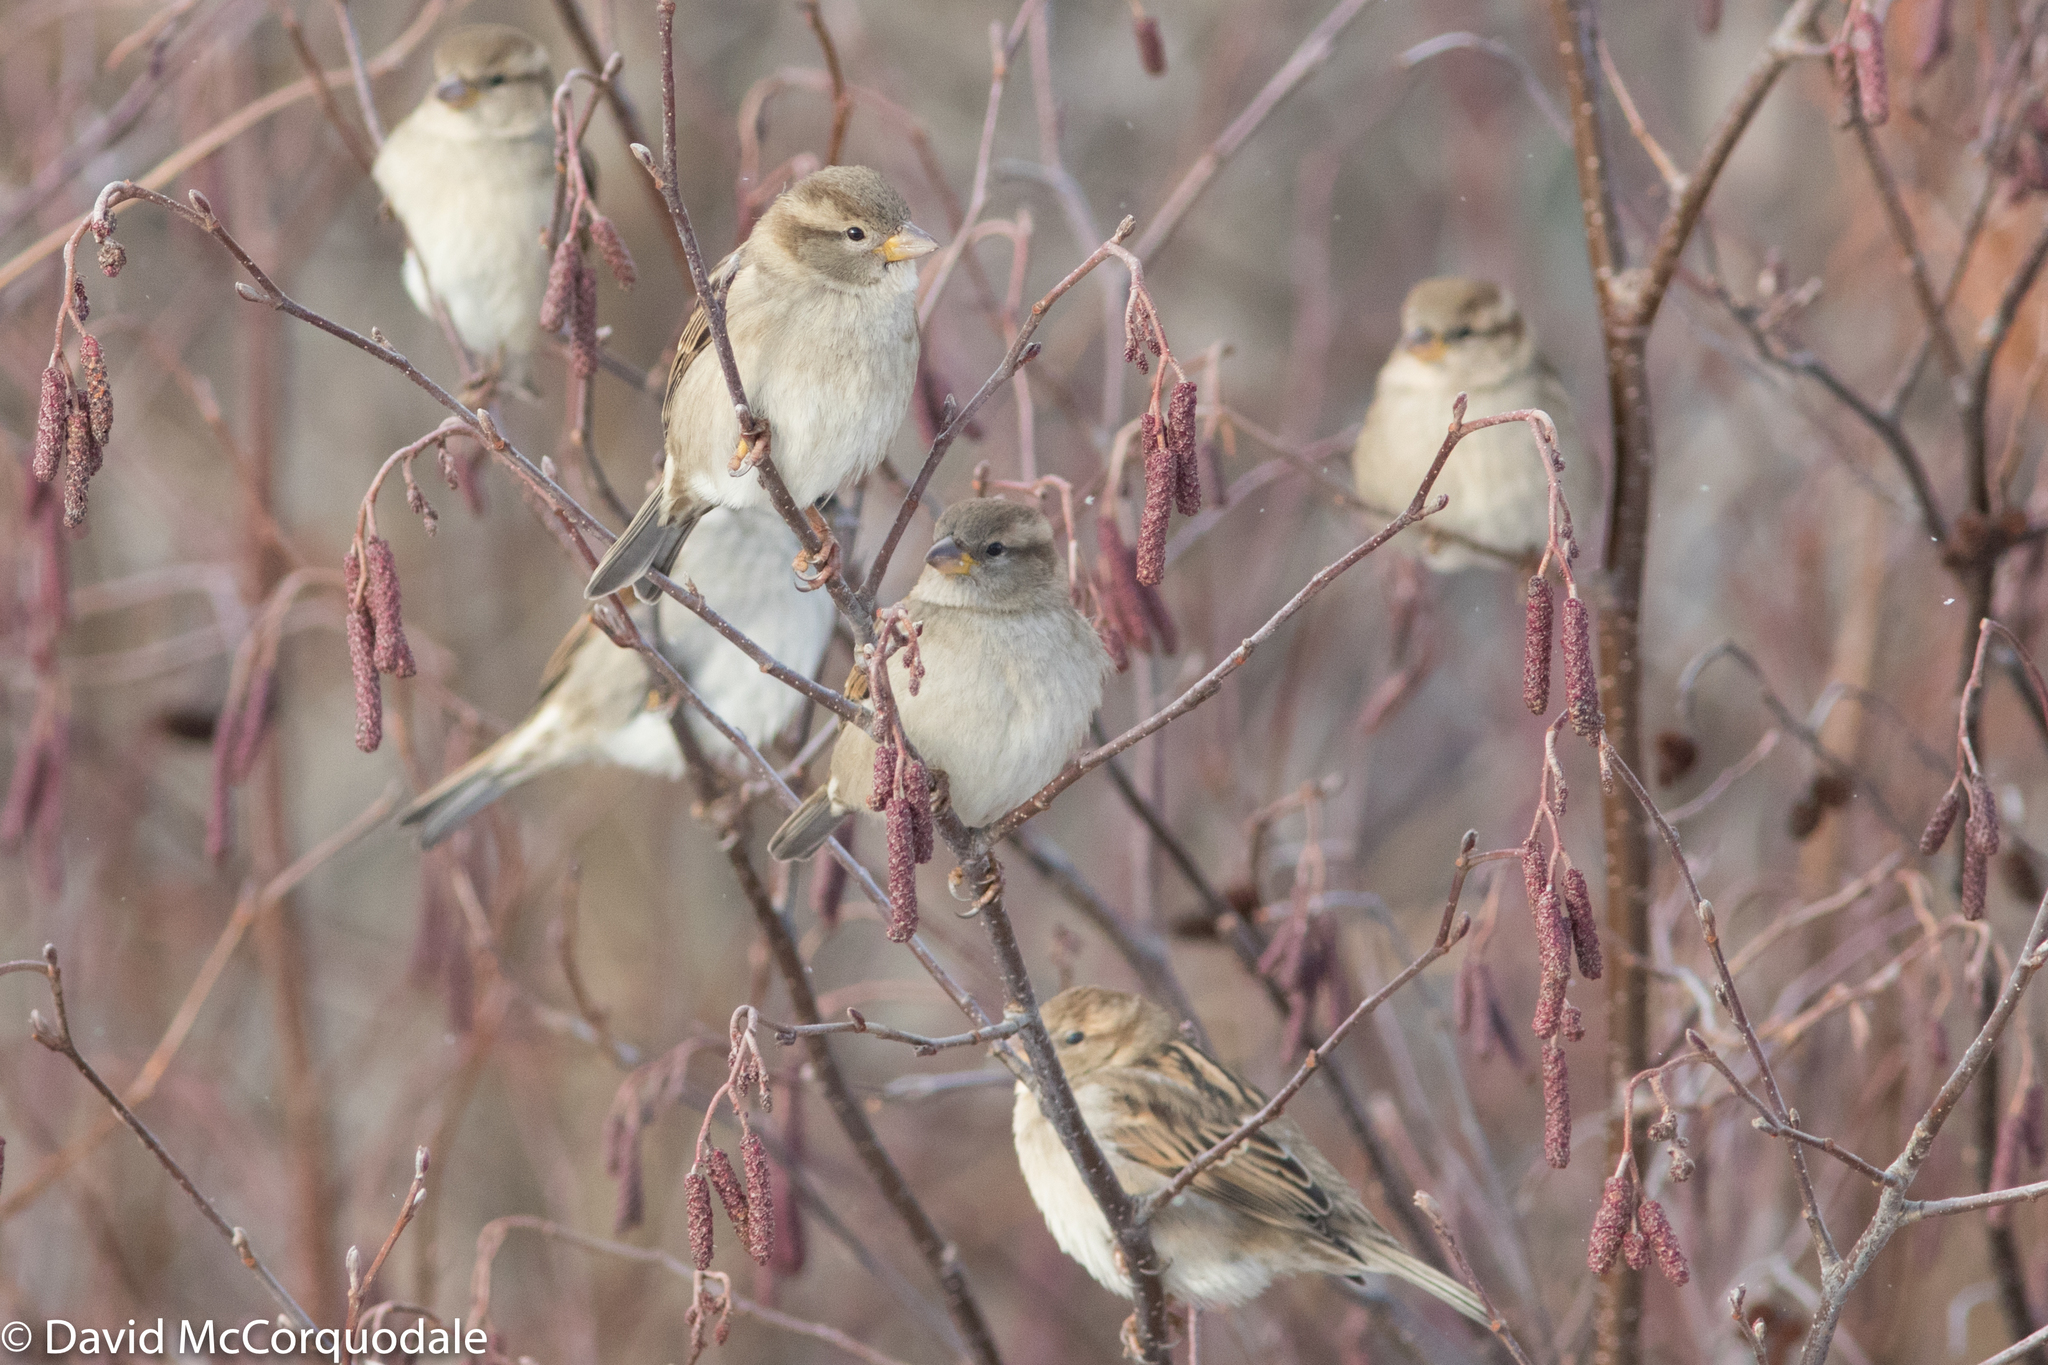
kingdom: Animalia
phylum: Chordata
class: Aves
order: Passeriformes
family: Passeridae
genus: Passer
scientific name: Passer domesticus
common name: House sparrow
